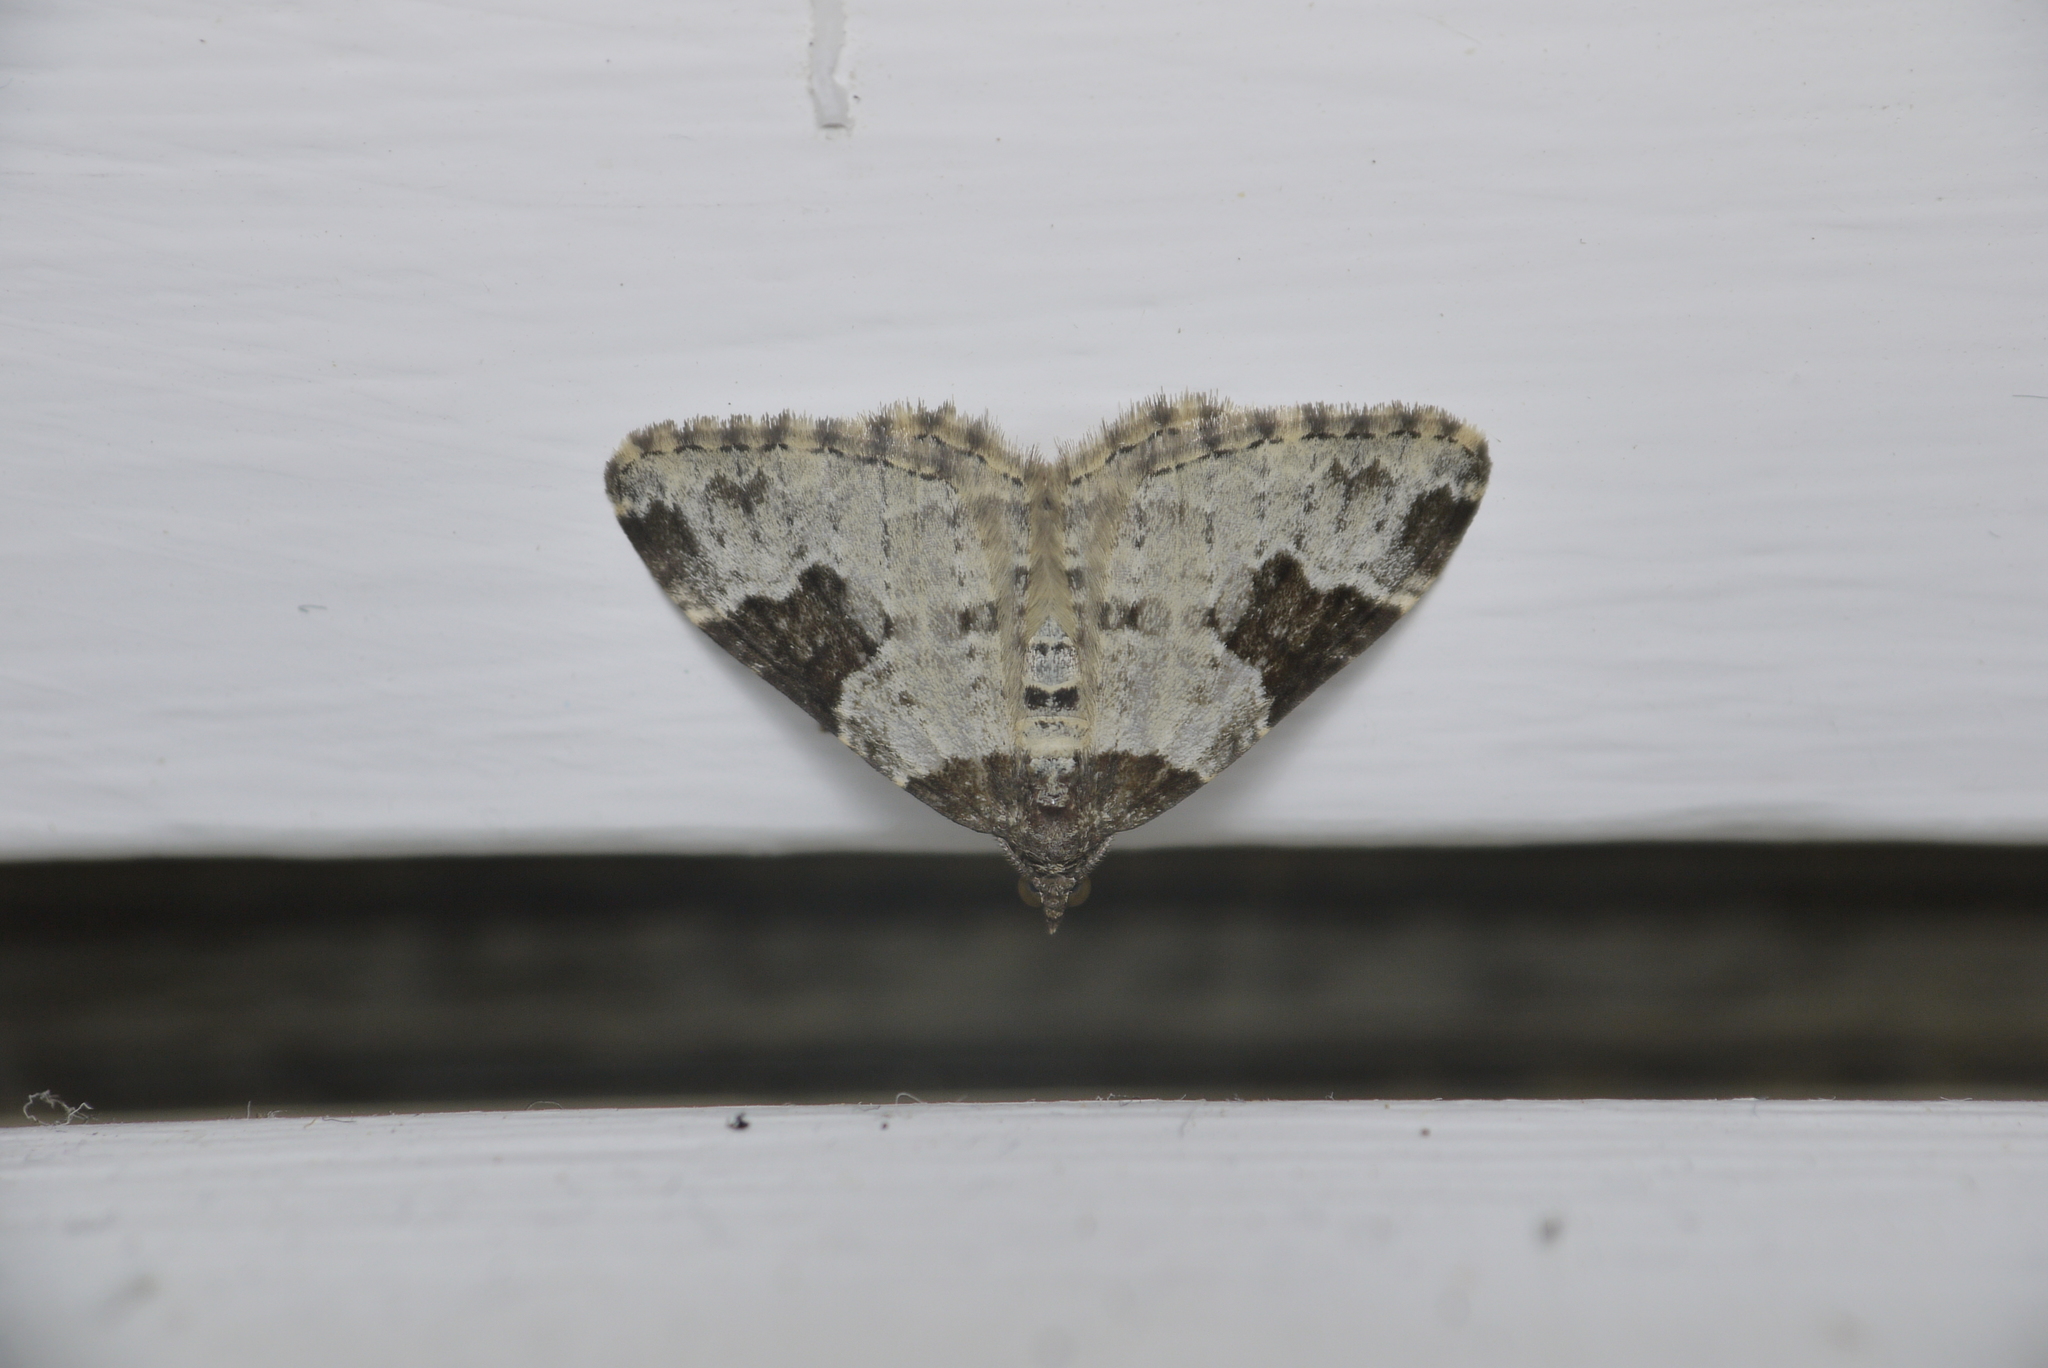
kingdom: Animalia
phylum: Arthropoda
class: Insecta
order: Lepidoptera
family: Geometridae
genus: Xanthorhoe
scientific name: Xanthorhoe fluctuata
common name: Garden carpet
